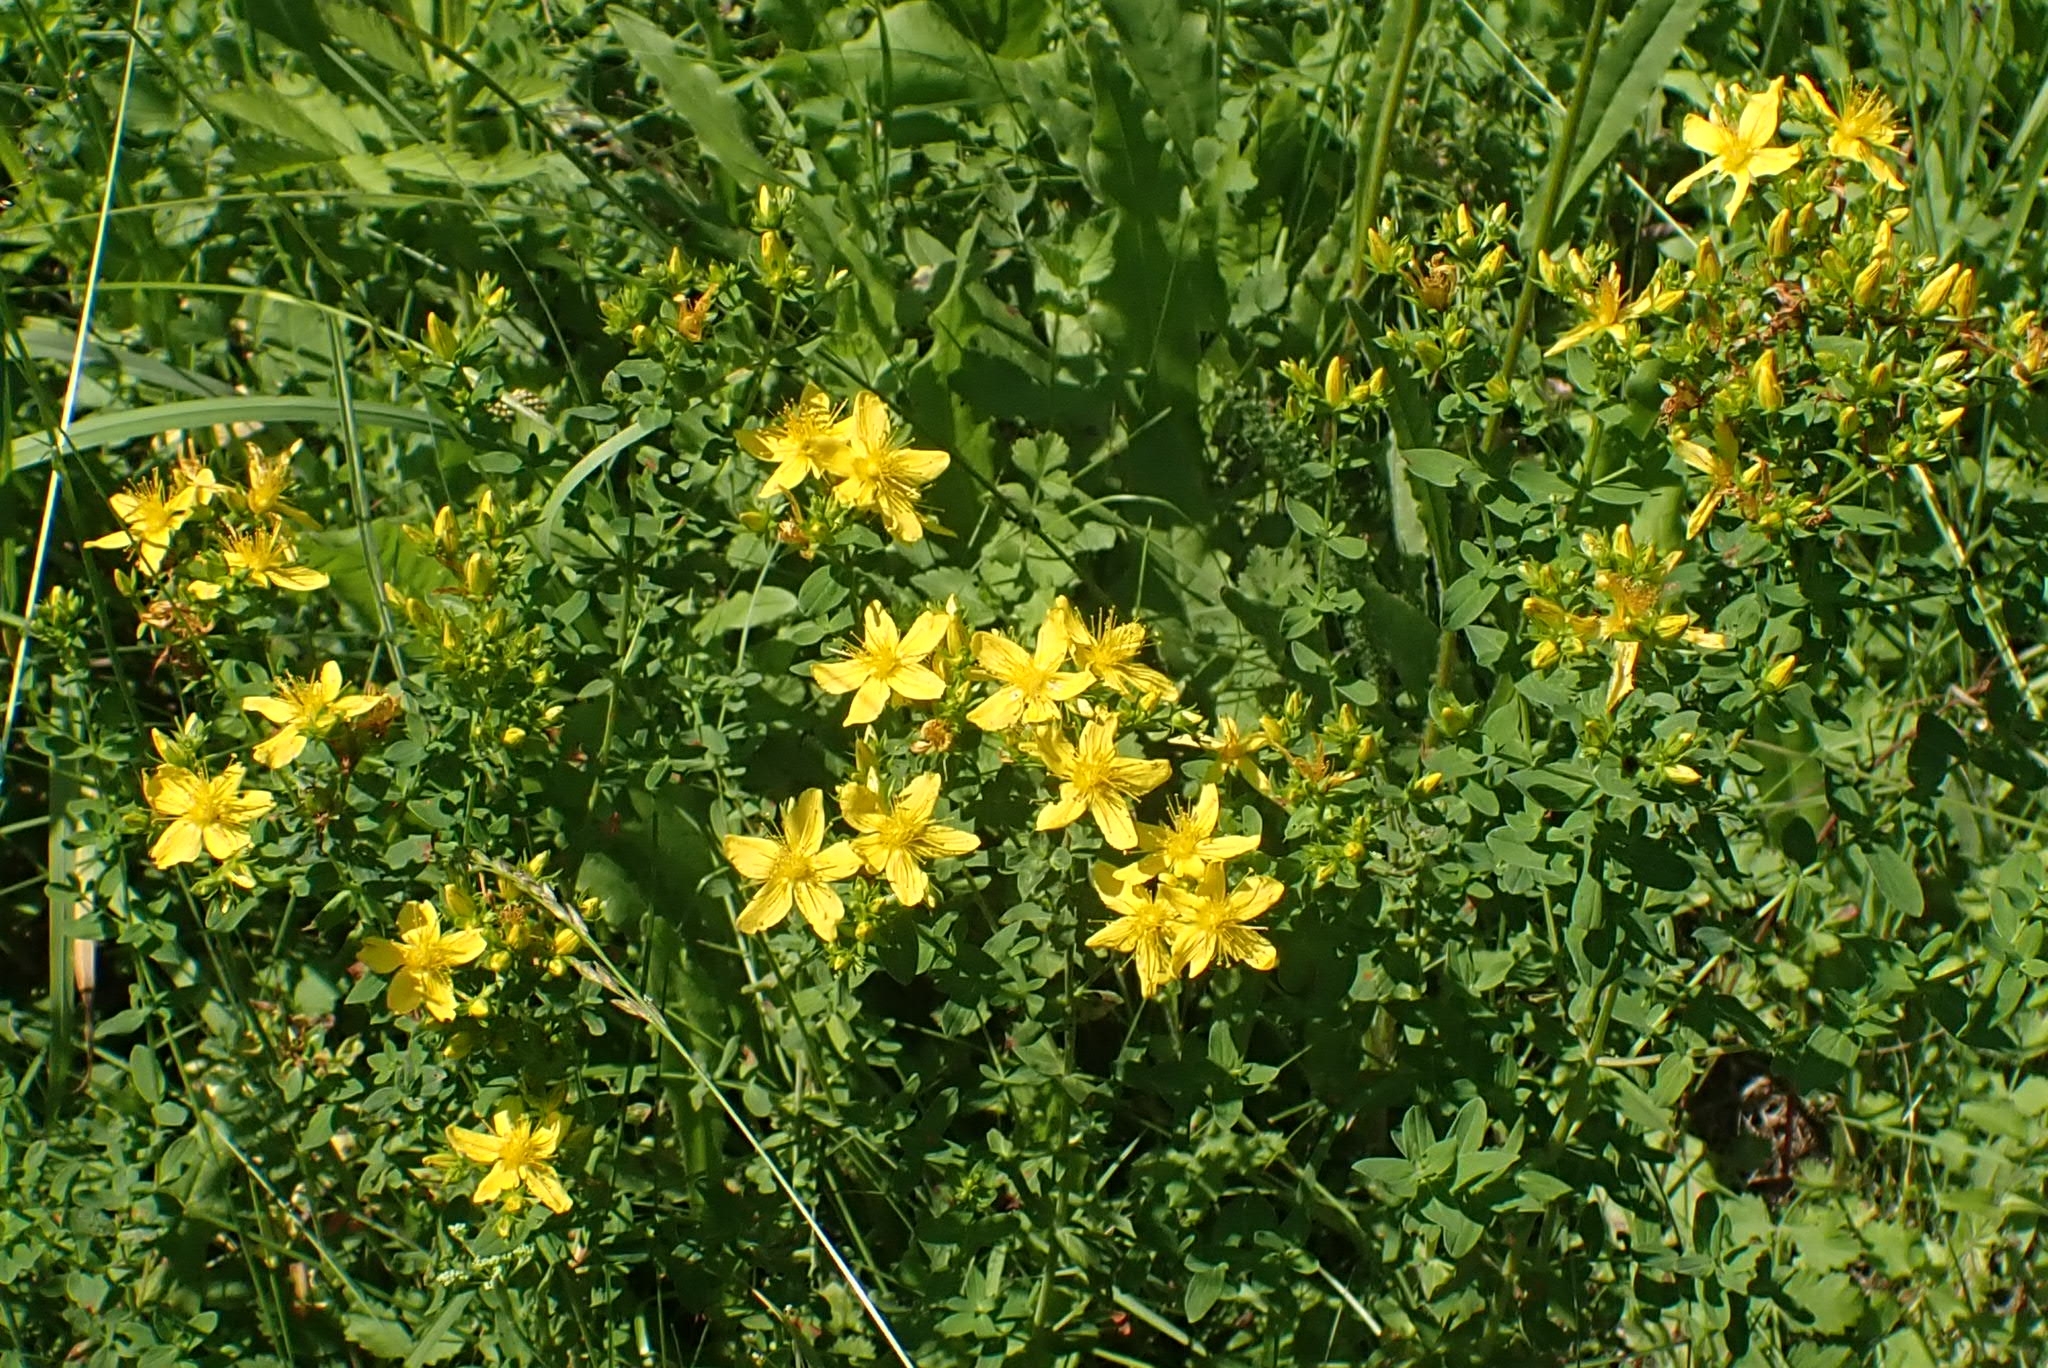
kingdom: Plantae
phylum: Tracheophyta
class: Magnoliopsida
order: Malpighiales
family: Hypericaceae
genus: Hypericum
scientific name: Hypericum perforatum
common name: Common st. johnswort
